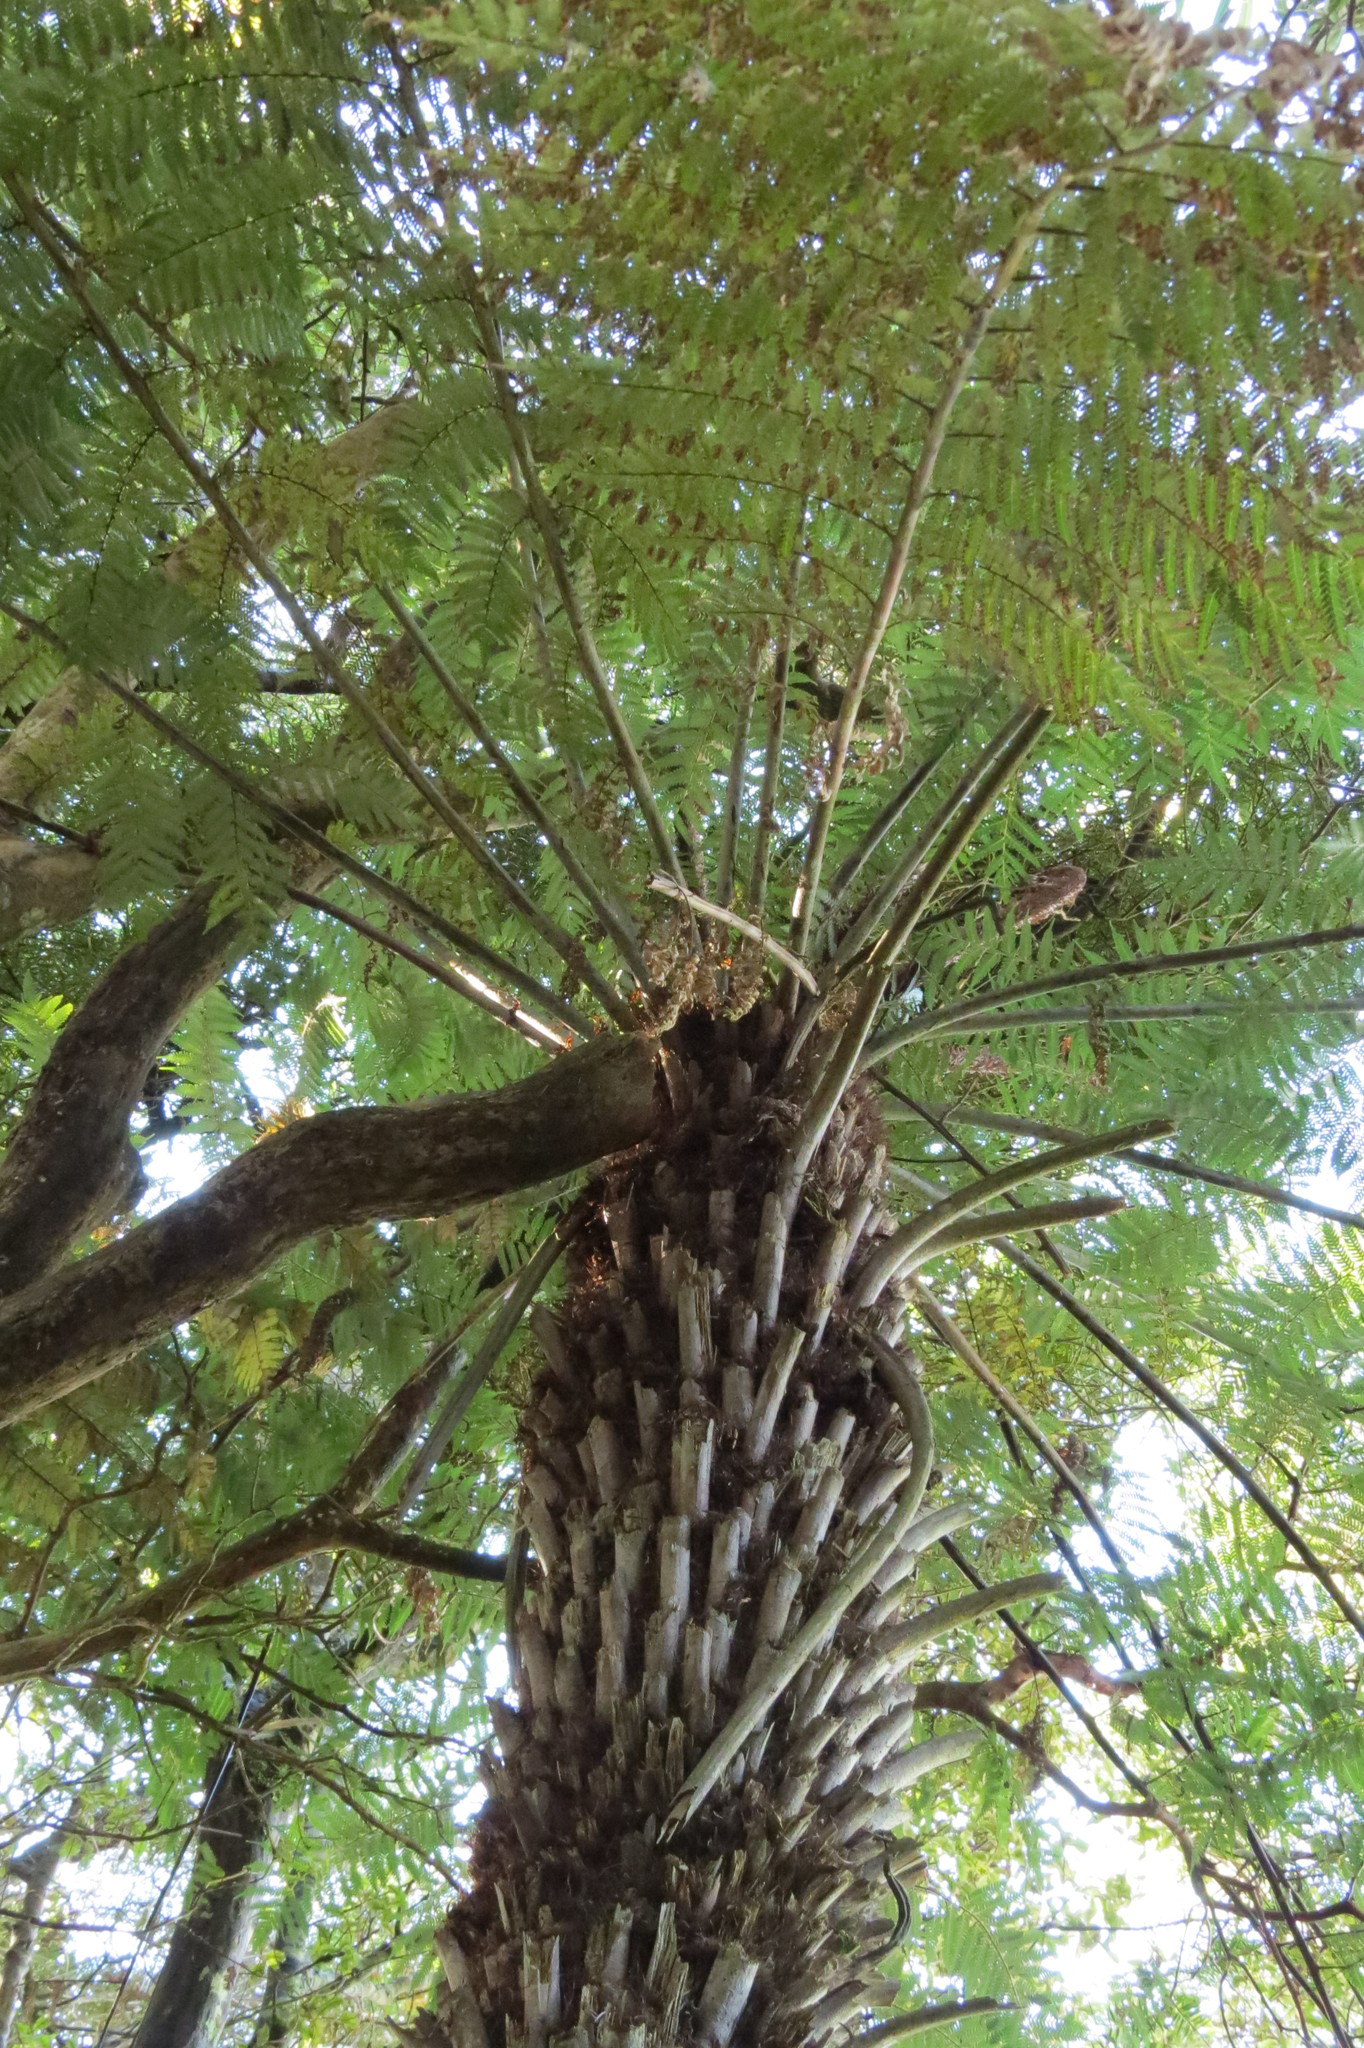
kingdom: Plantae
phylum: Tracheophyta
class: Polypodiopsida
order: Cyatheales
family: Cyatheaceae
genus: Alsophila
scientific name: Alsophila dealbata
